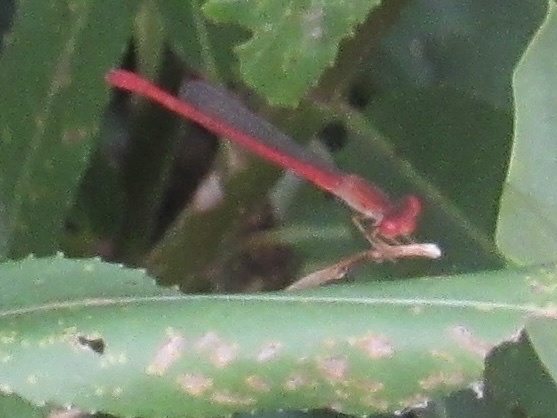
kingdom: Animalia
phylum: Arthropoda
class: Insecta
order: Odonata
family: Coenagrionidae
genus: Telebasis
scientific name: Telebasis salva
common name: Desert firetail
